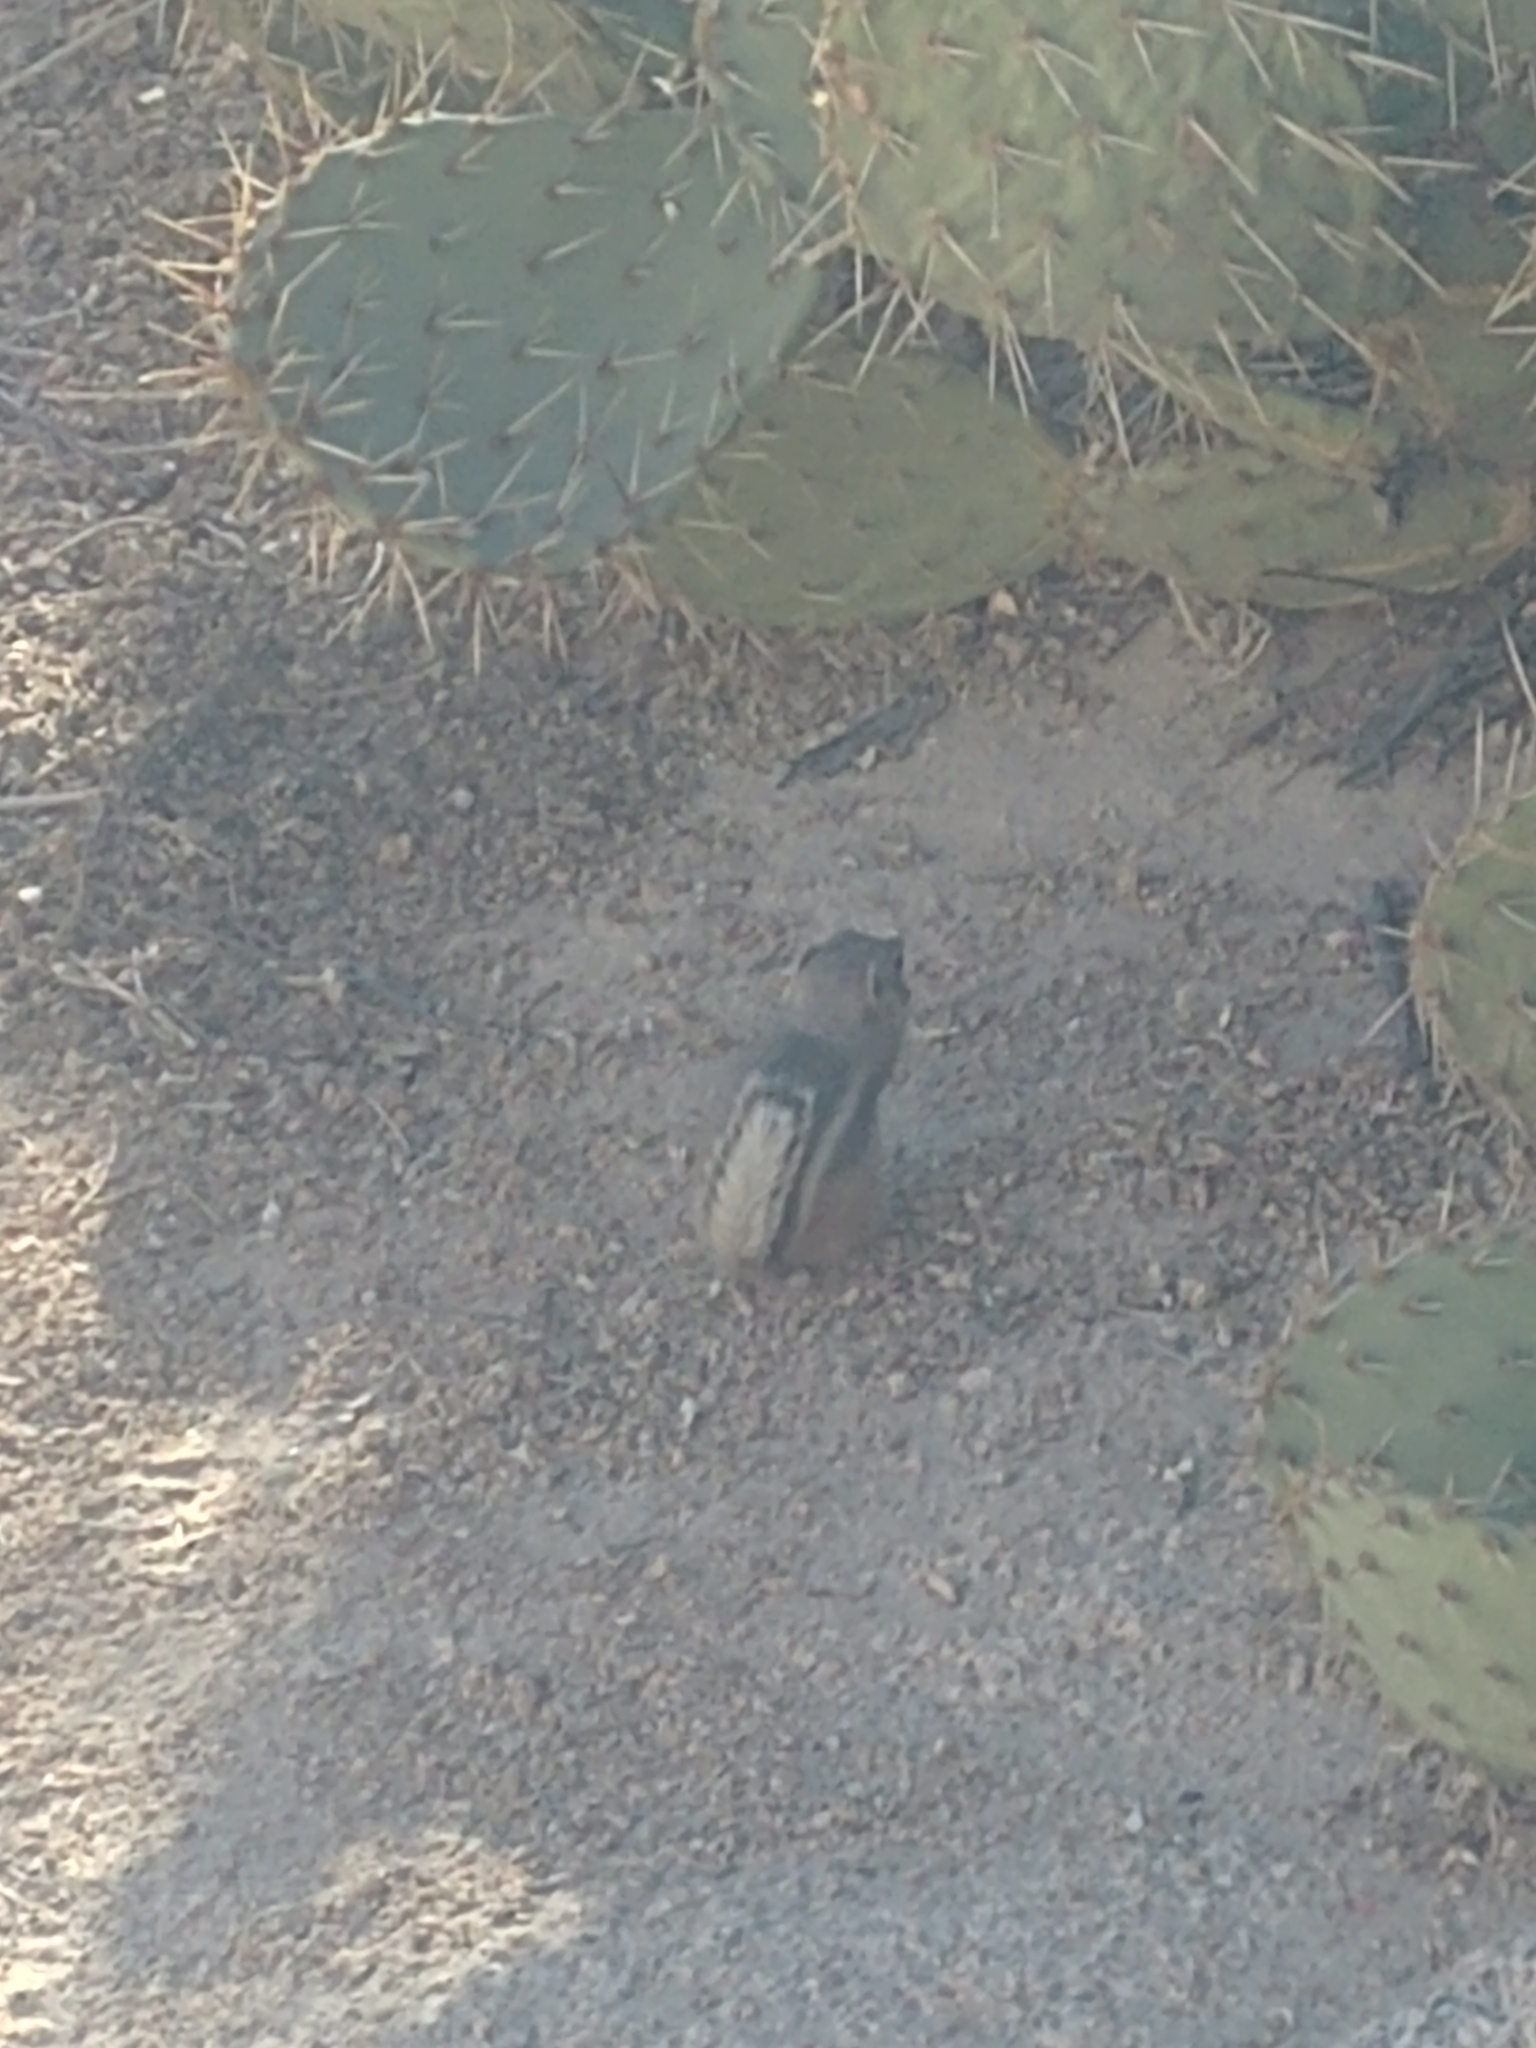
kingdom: Animalia
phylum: Chordata
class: Mammalia
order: Rodentia
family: Sciuridae
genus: Ammospermophilus
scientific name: Ammospermophilus leucurus
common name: White-tailed antelope squirrel
